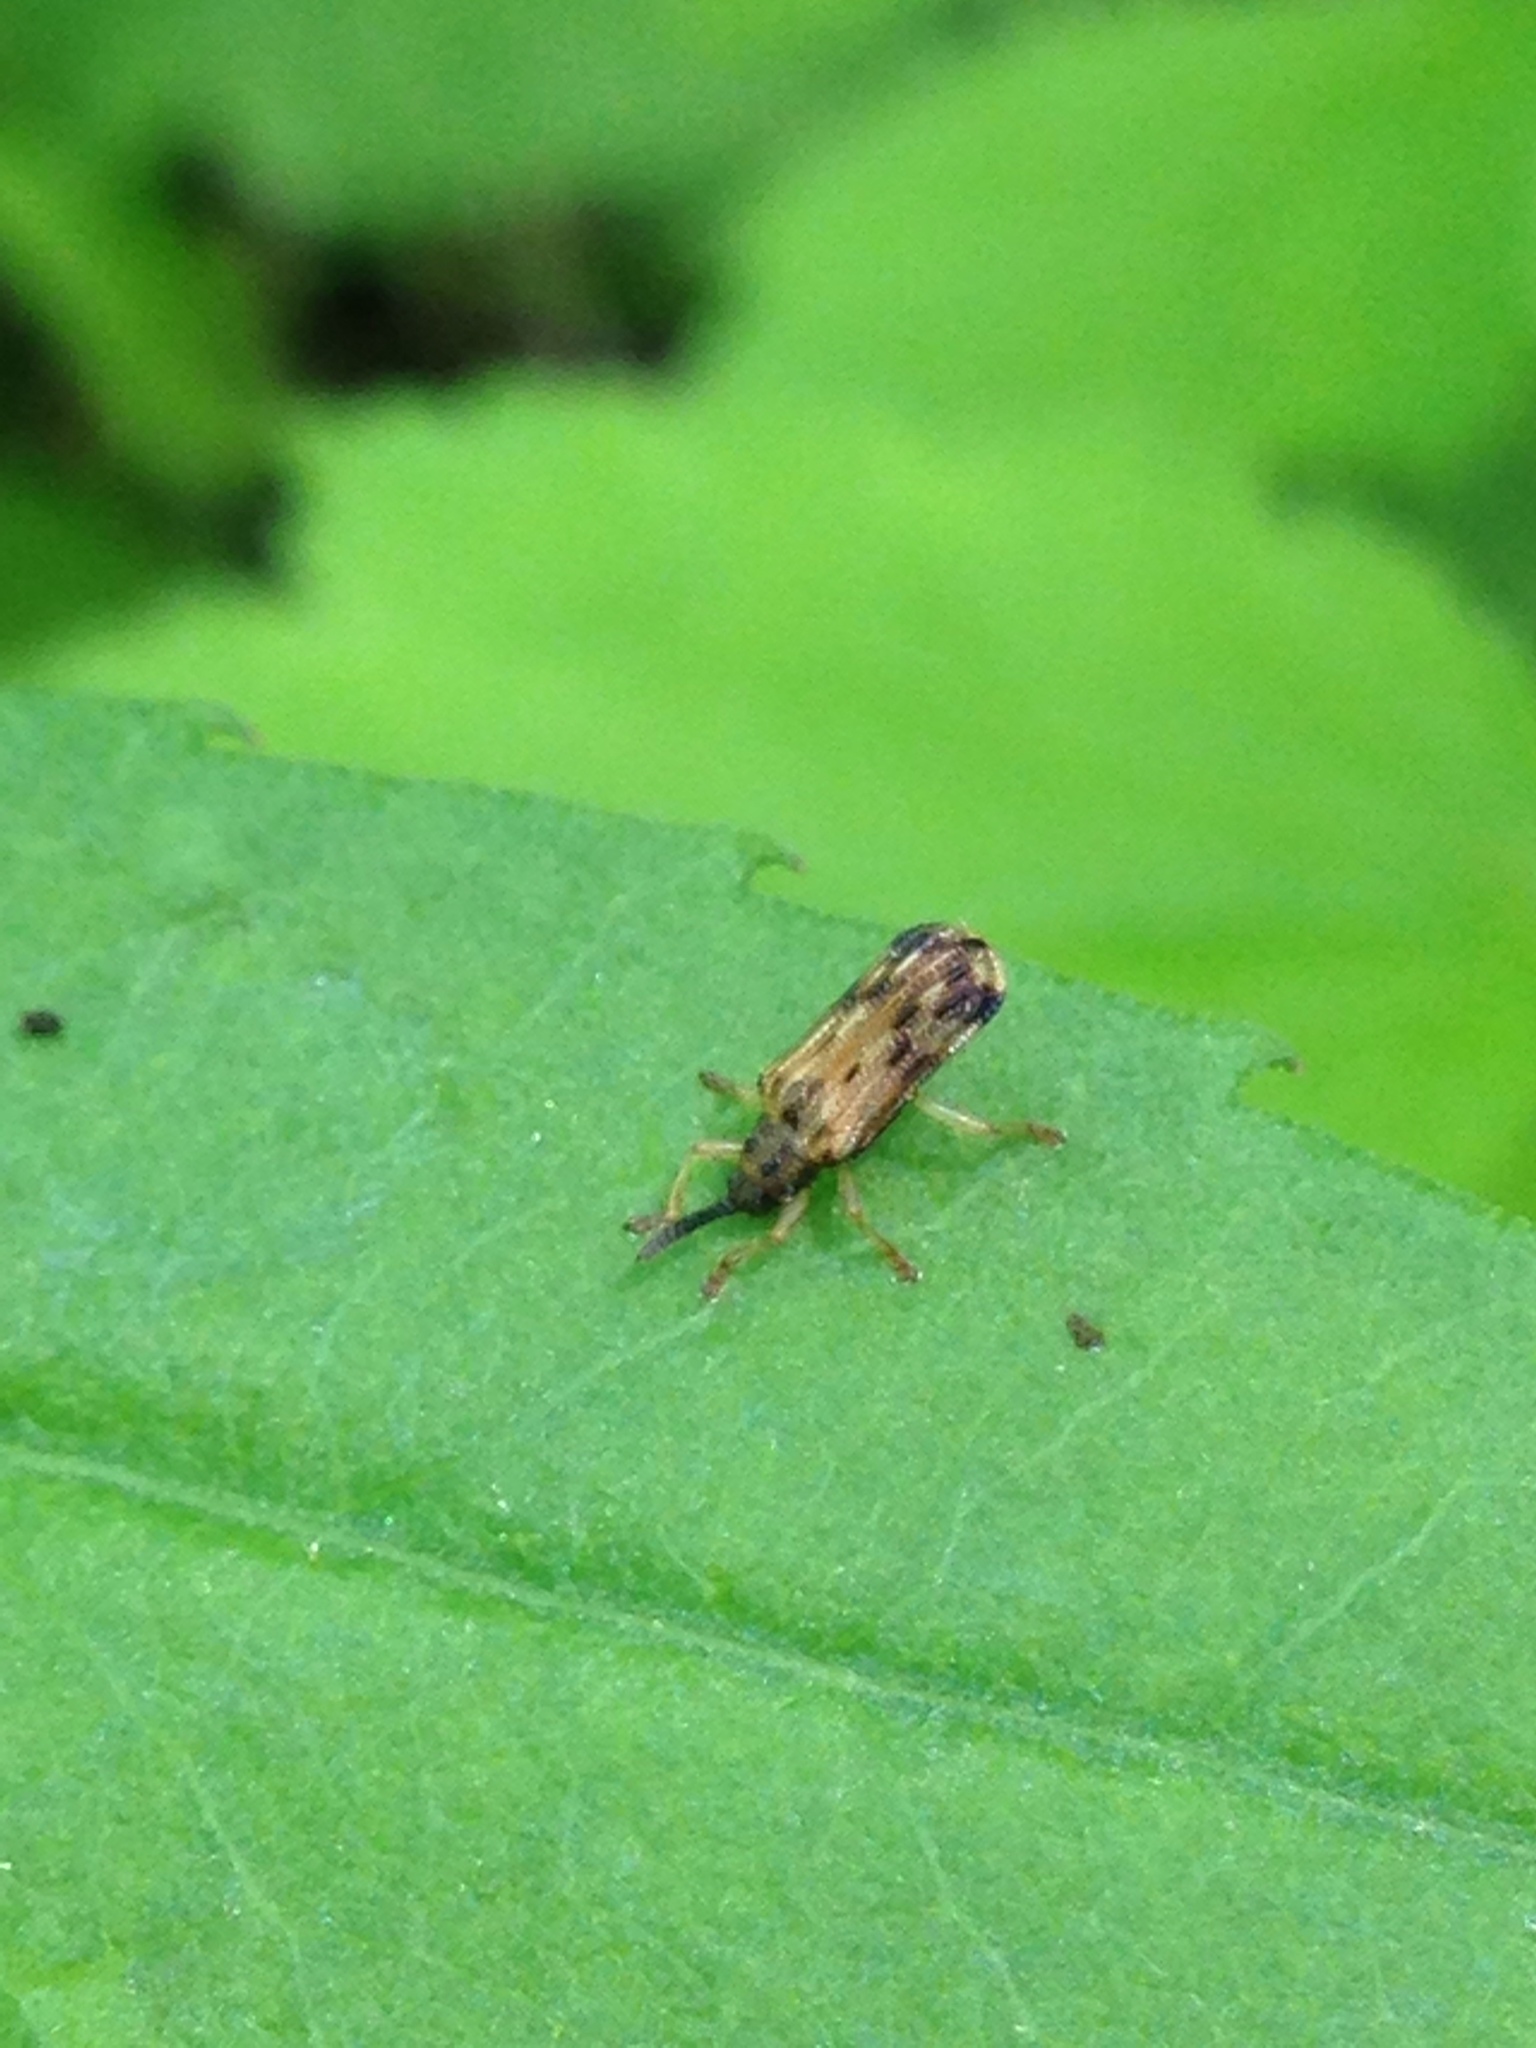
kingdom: Animalia
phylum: Arthropoda
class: Insecta
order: Coleoptera
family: Chrysomelidae
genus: Sumitrosis
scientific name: Sumitrosis inaequalis
